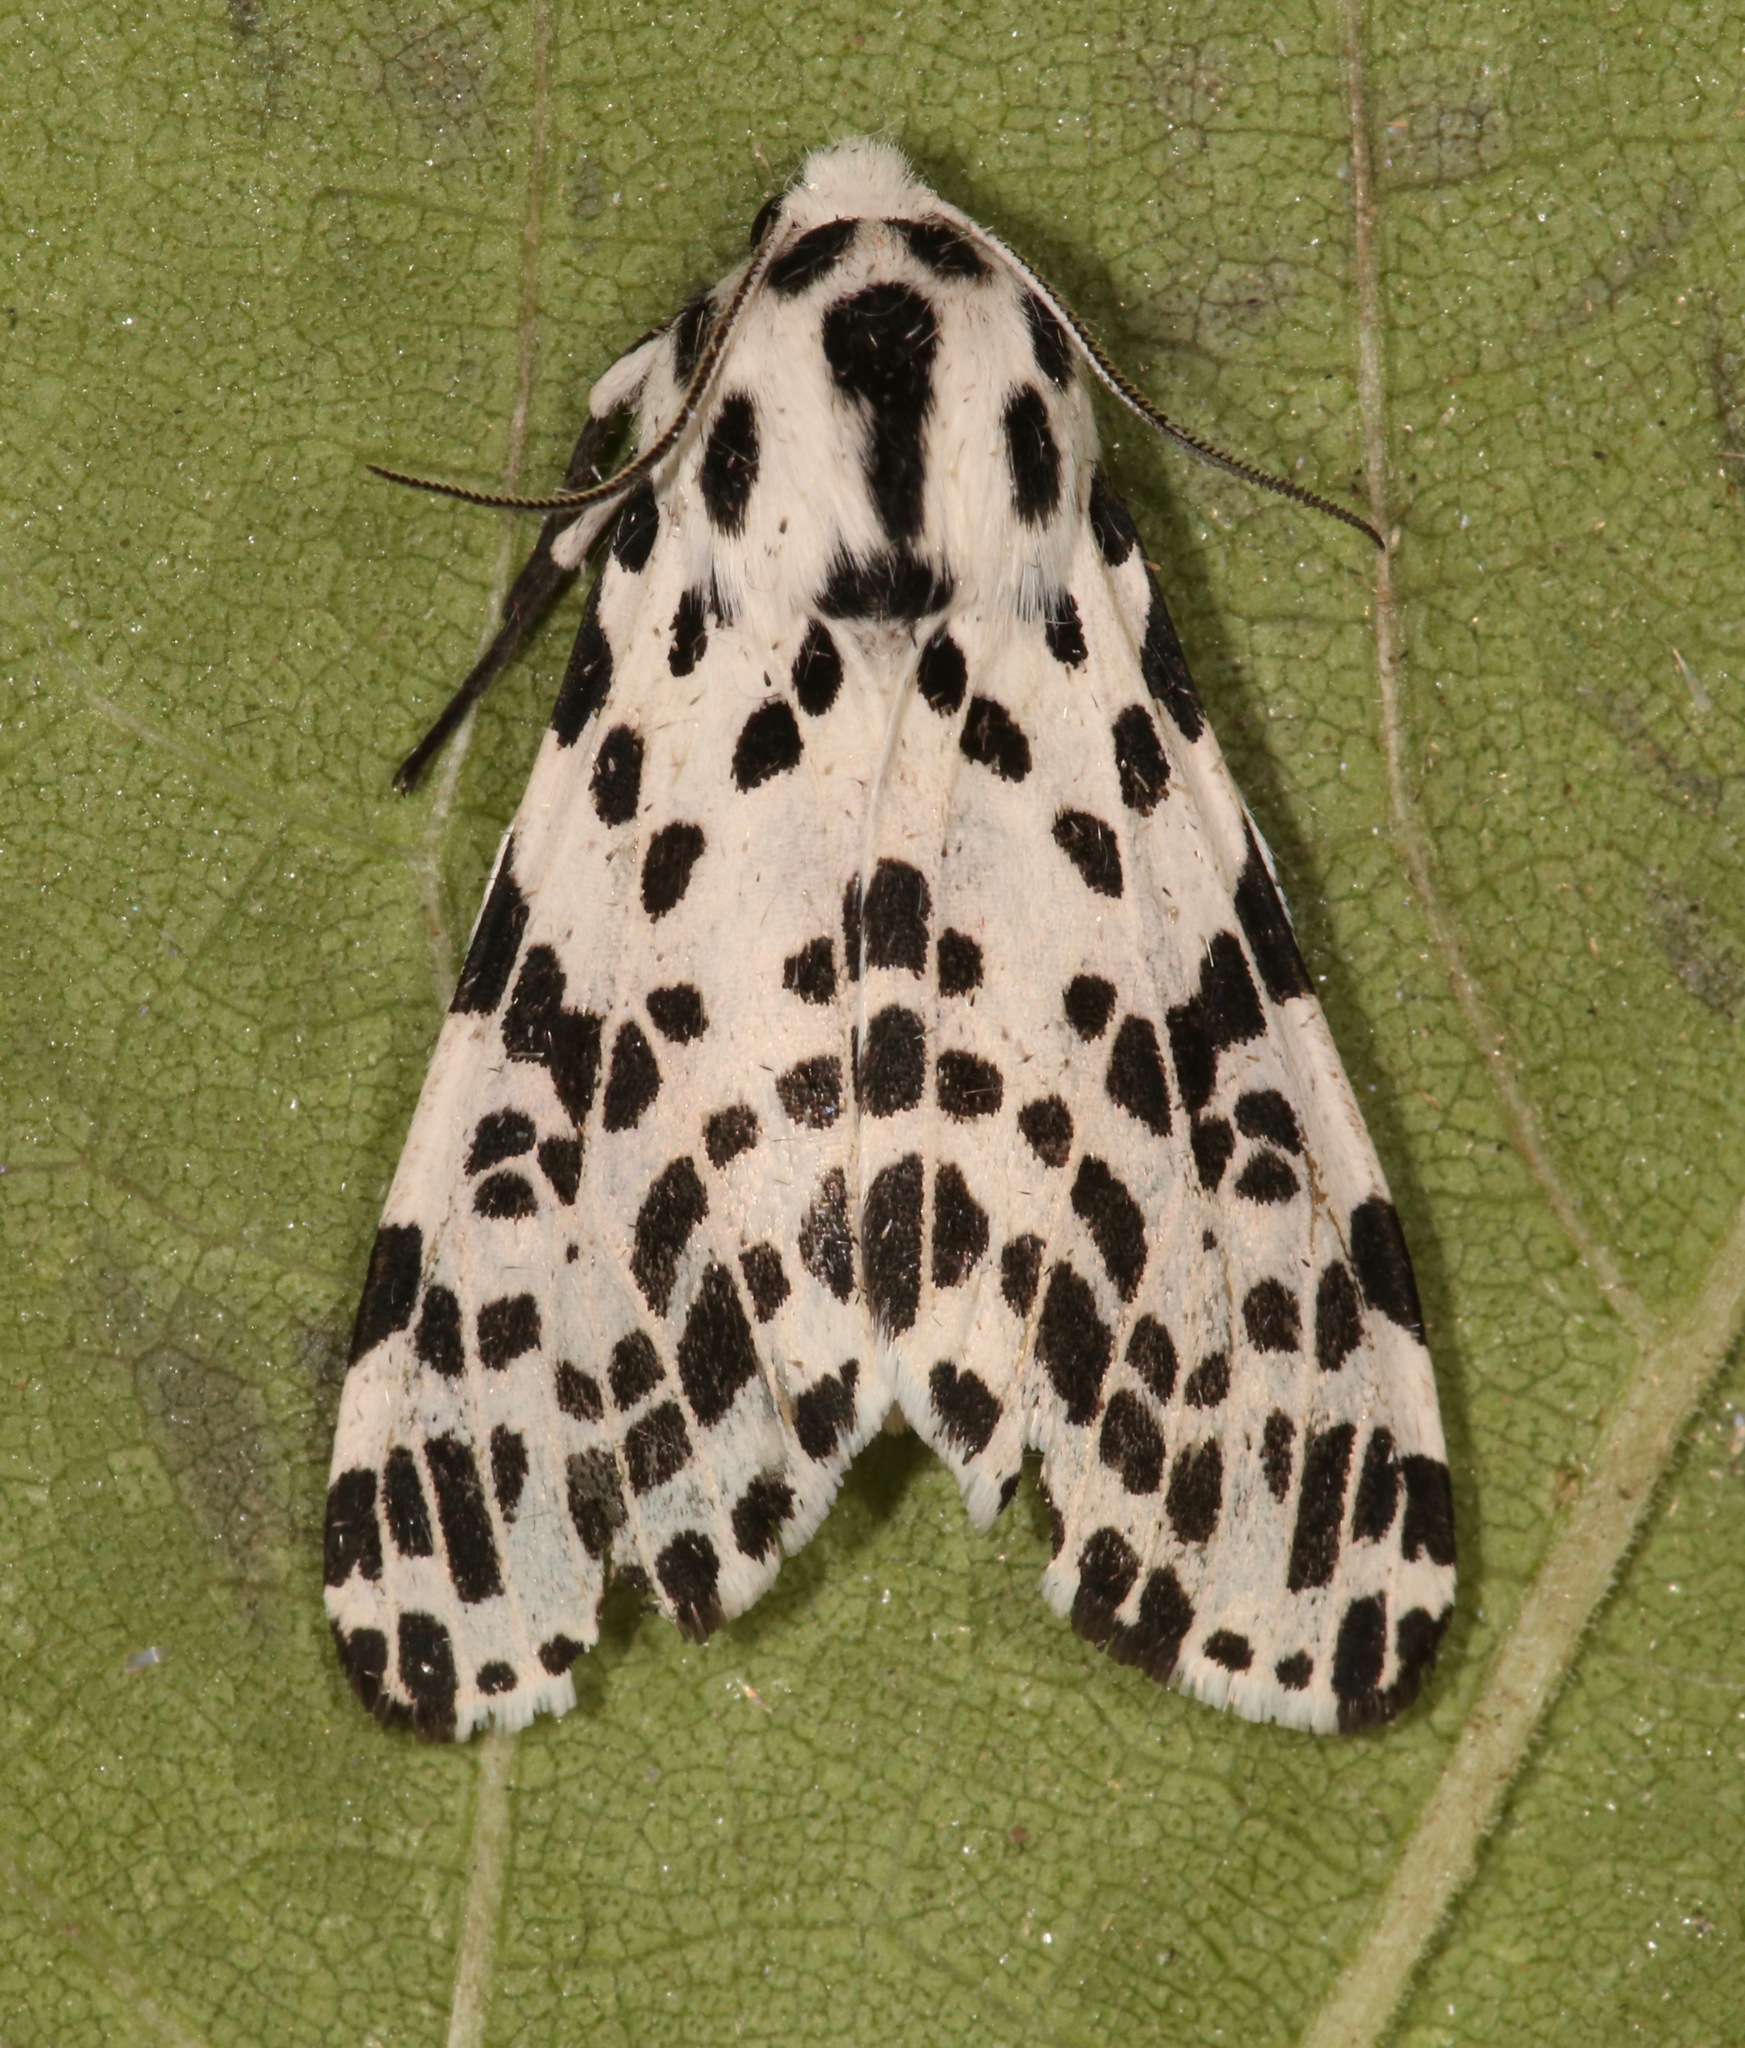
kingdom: Animalia
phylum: Arthropoda
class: Insecta
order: Lepidoptera
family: Erebidae
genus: Hypercompe
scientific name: Hypercompe permaculata
